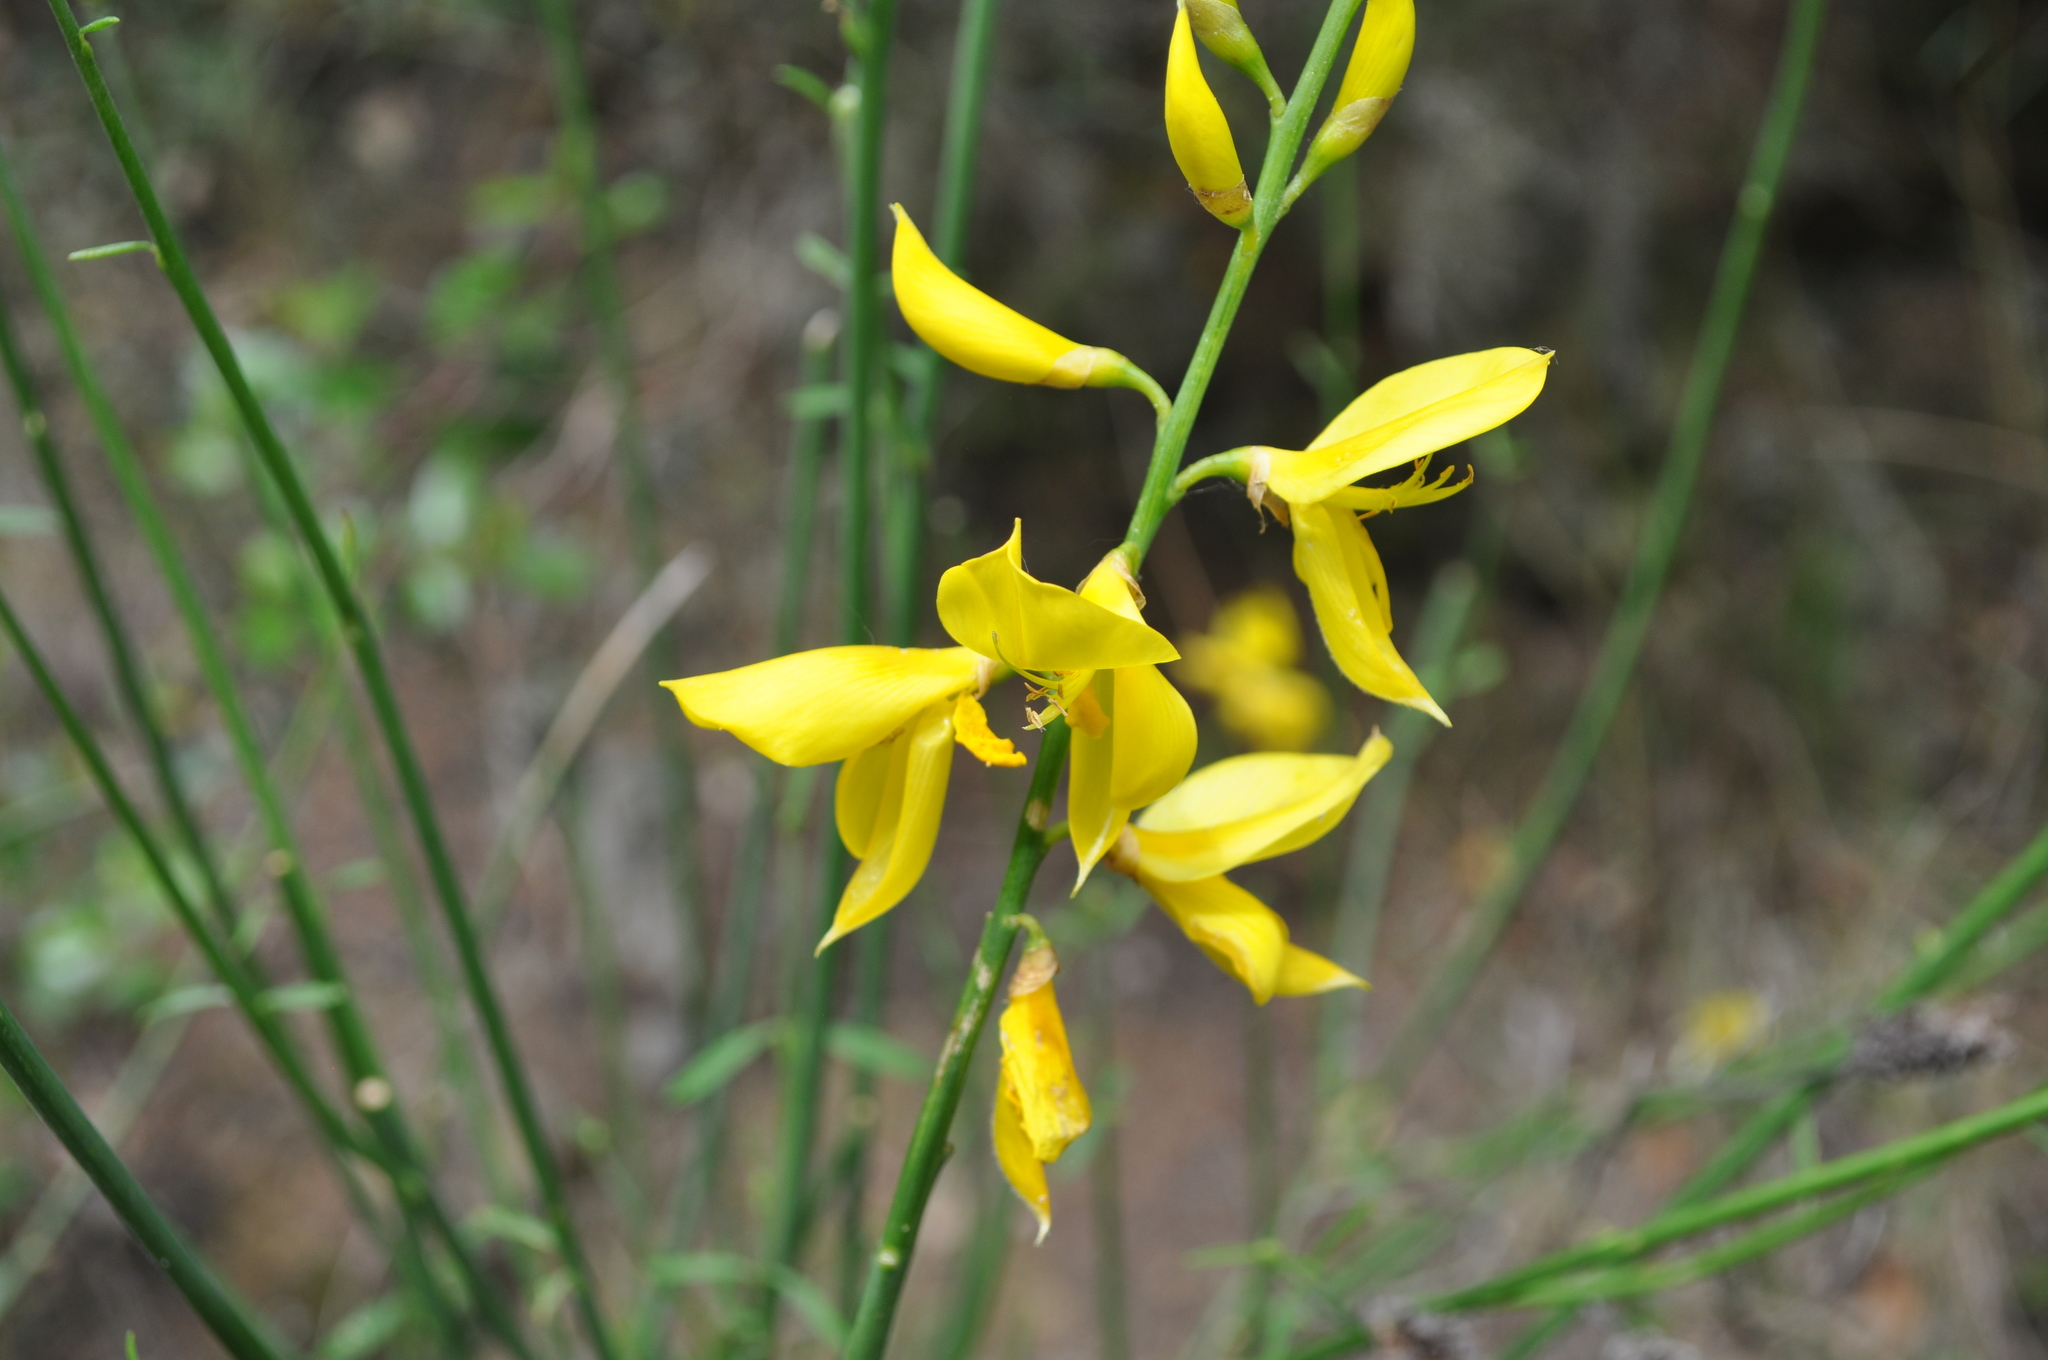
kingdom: Plantae
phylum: Tracheophyta
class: Magnoliopsida
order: Fabales
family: Fabaceae
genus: Spartium
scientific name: Spartium junceum
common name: Spanish broom
